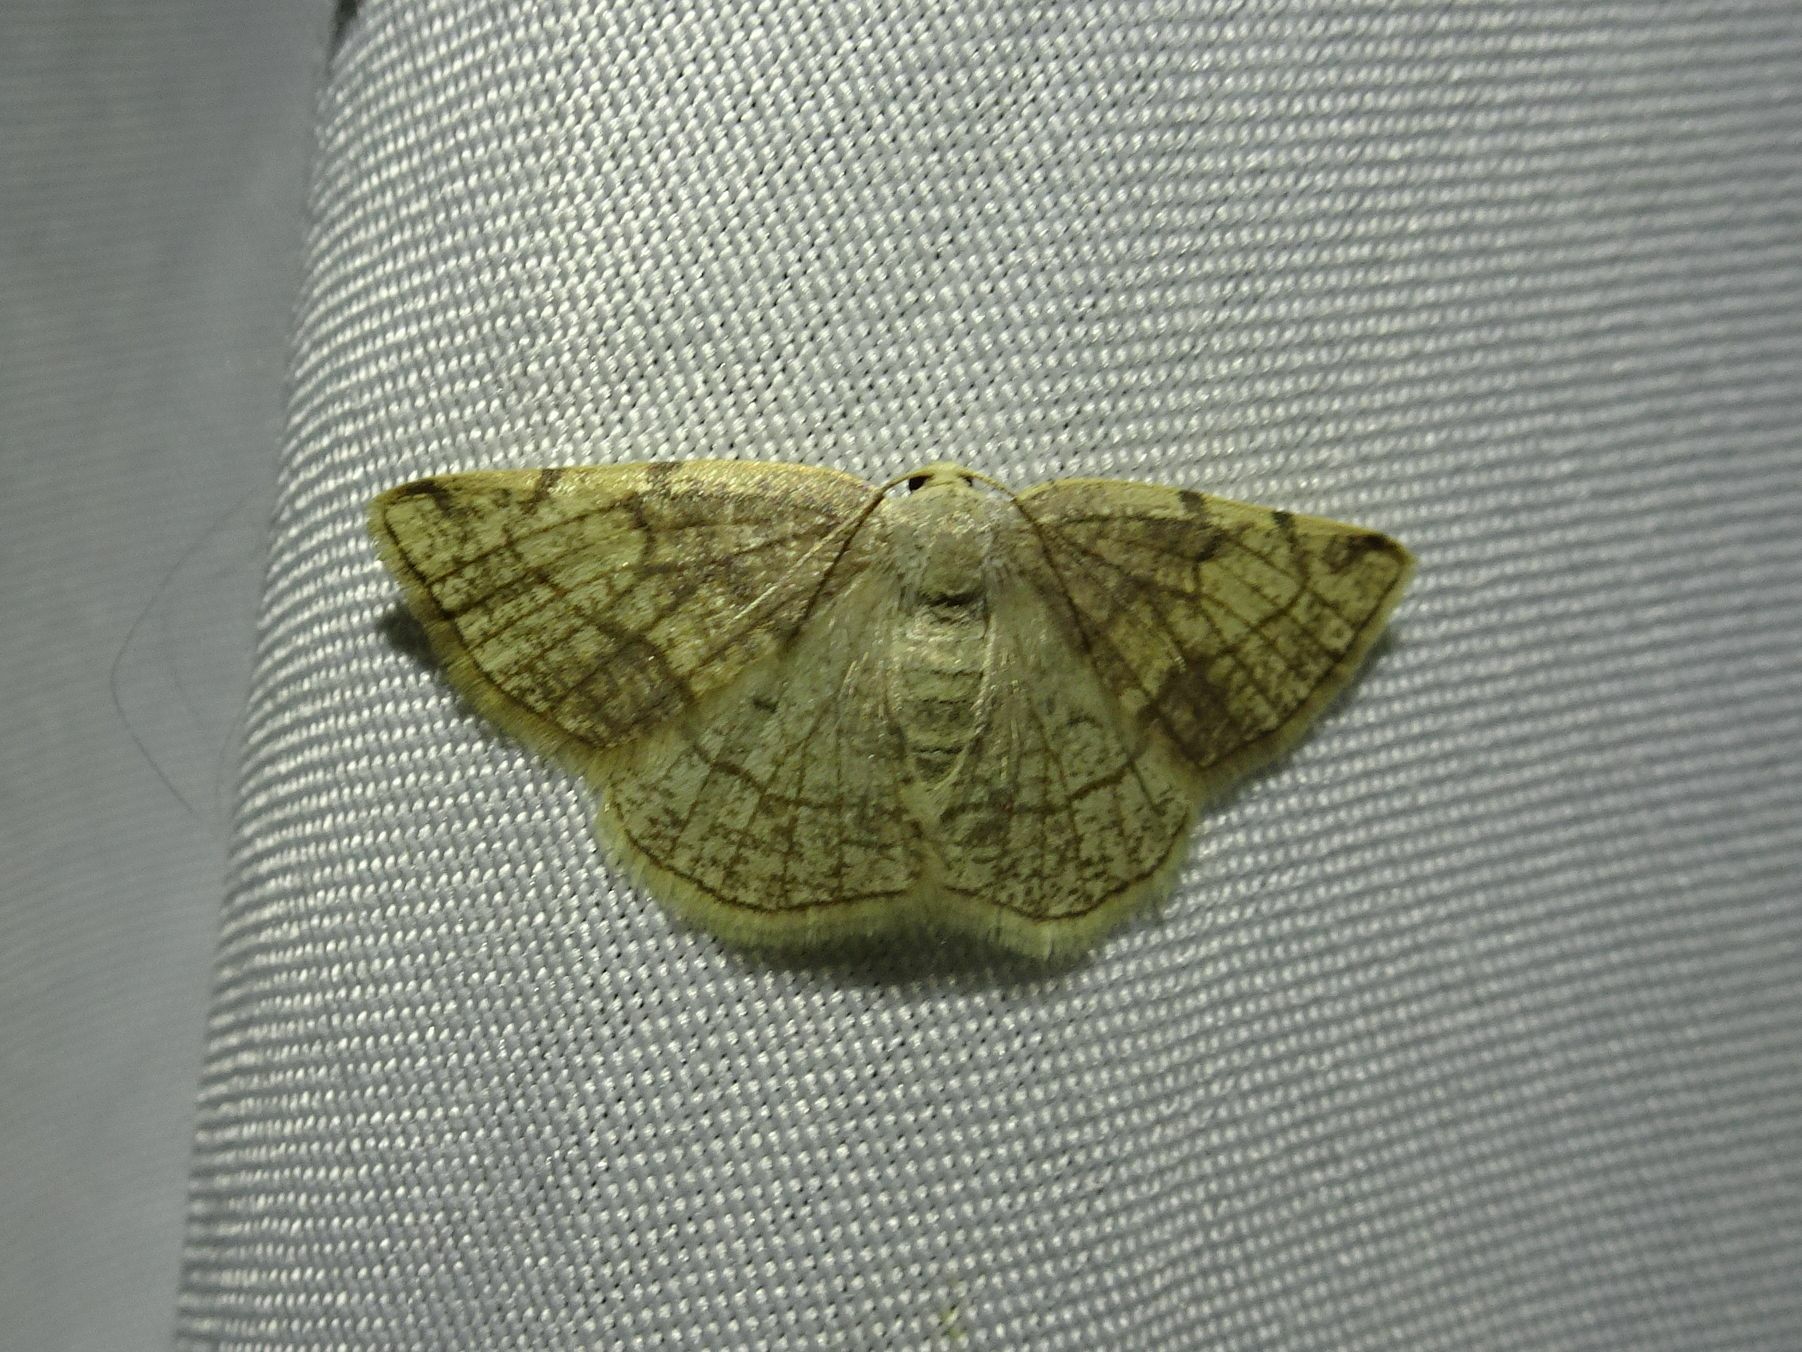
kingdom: Animalia
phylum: Arthropoda
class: Insecta
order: Lepidoptera
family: Geometridae
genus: Stegania
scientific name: Stegania trimaculata
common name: Dorset cream wave
